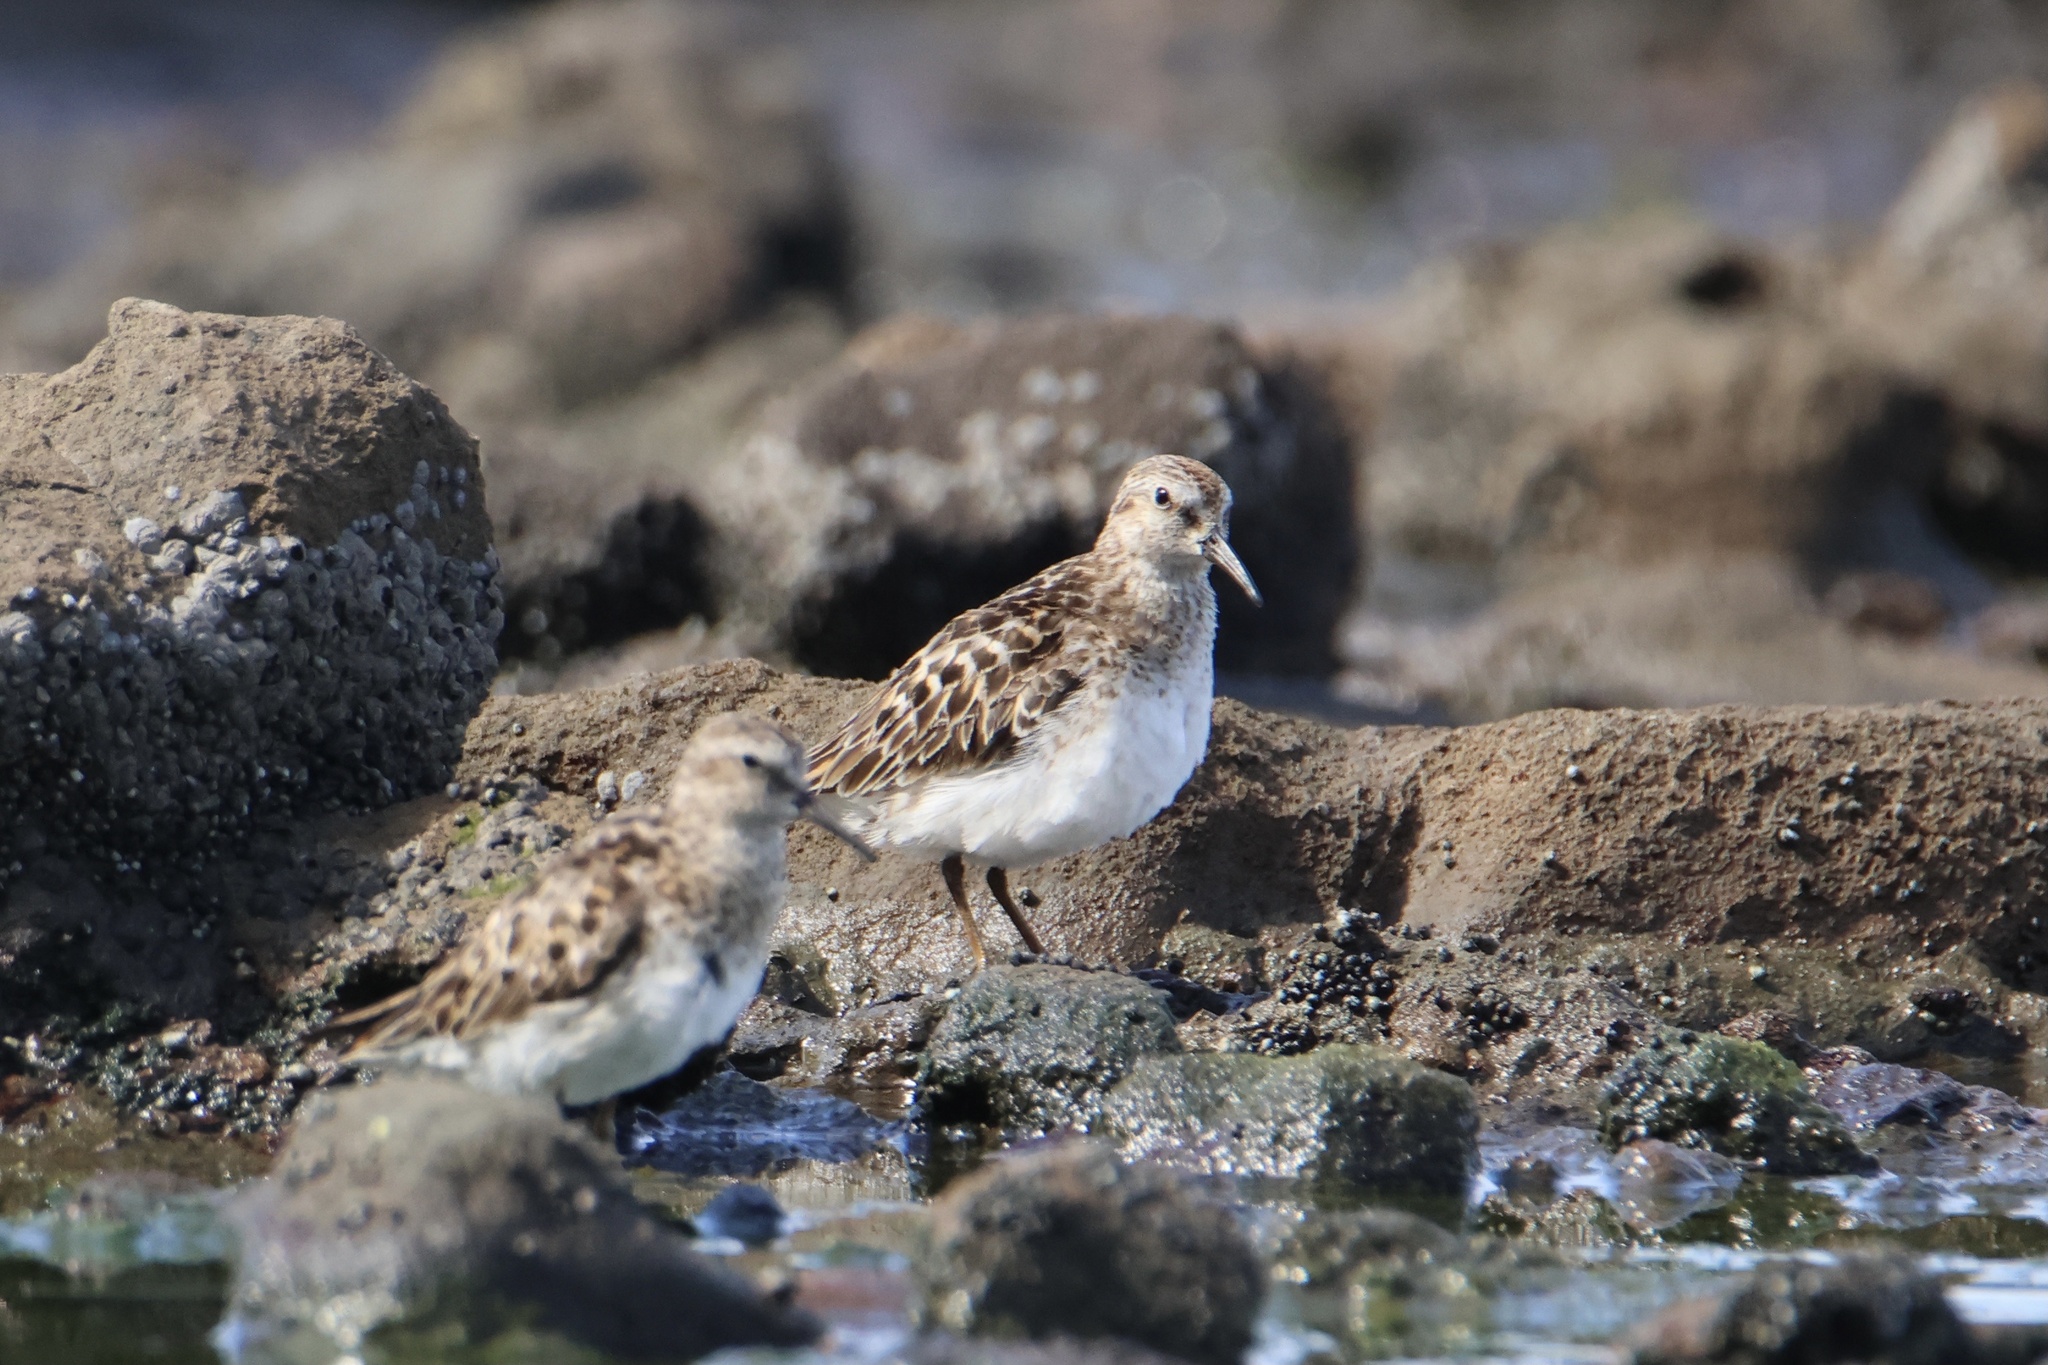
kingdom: Animalia
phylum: Chordata
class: Aves
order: Charadriiformes
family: Scolopacidae
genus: Calidris
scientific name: Calidris minutilla
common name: Least sandpiper
